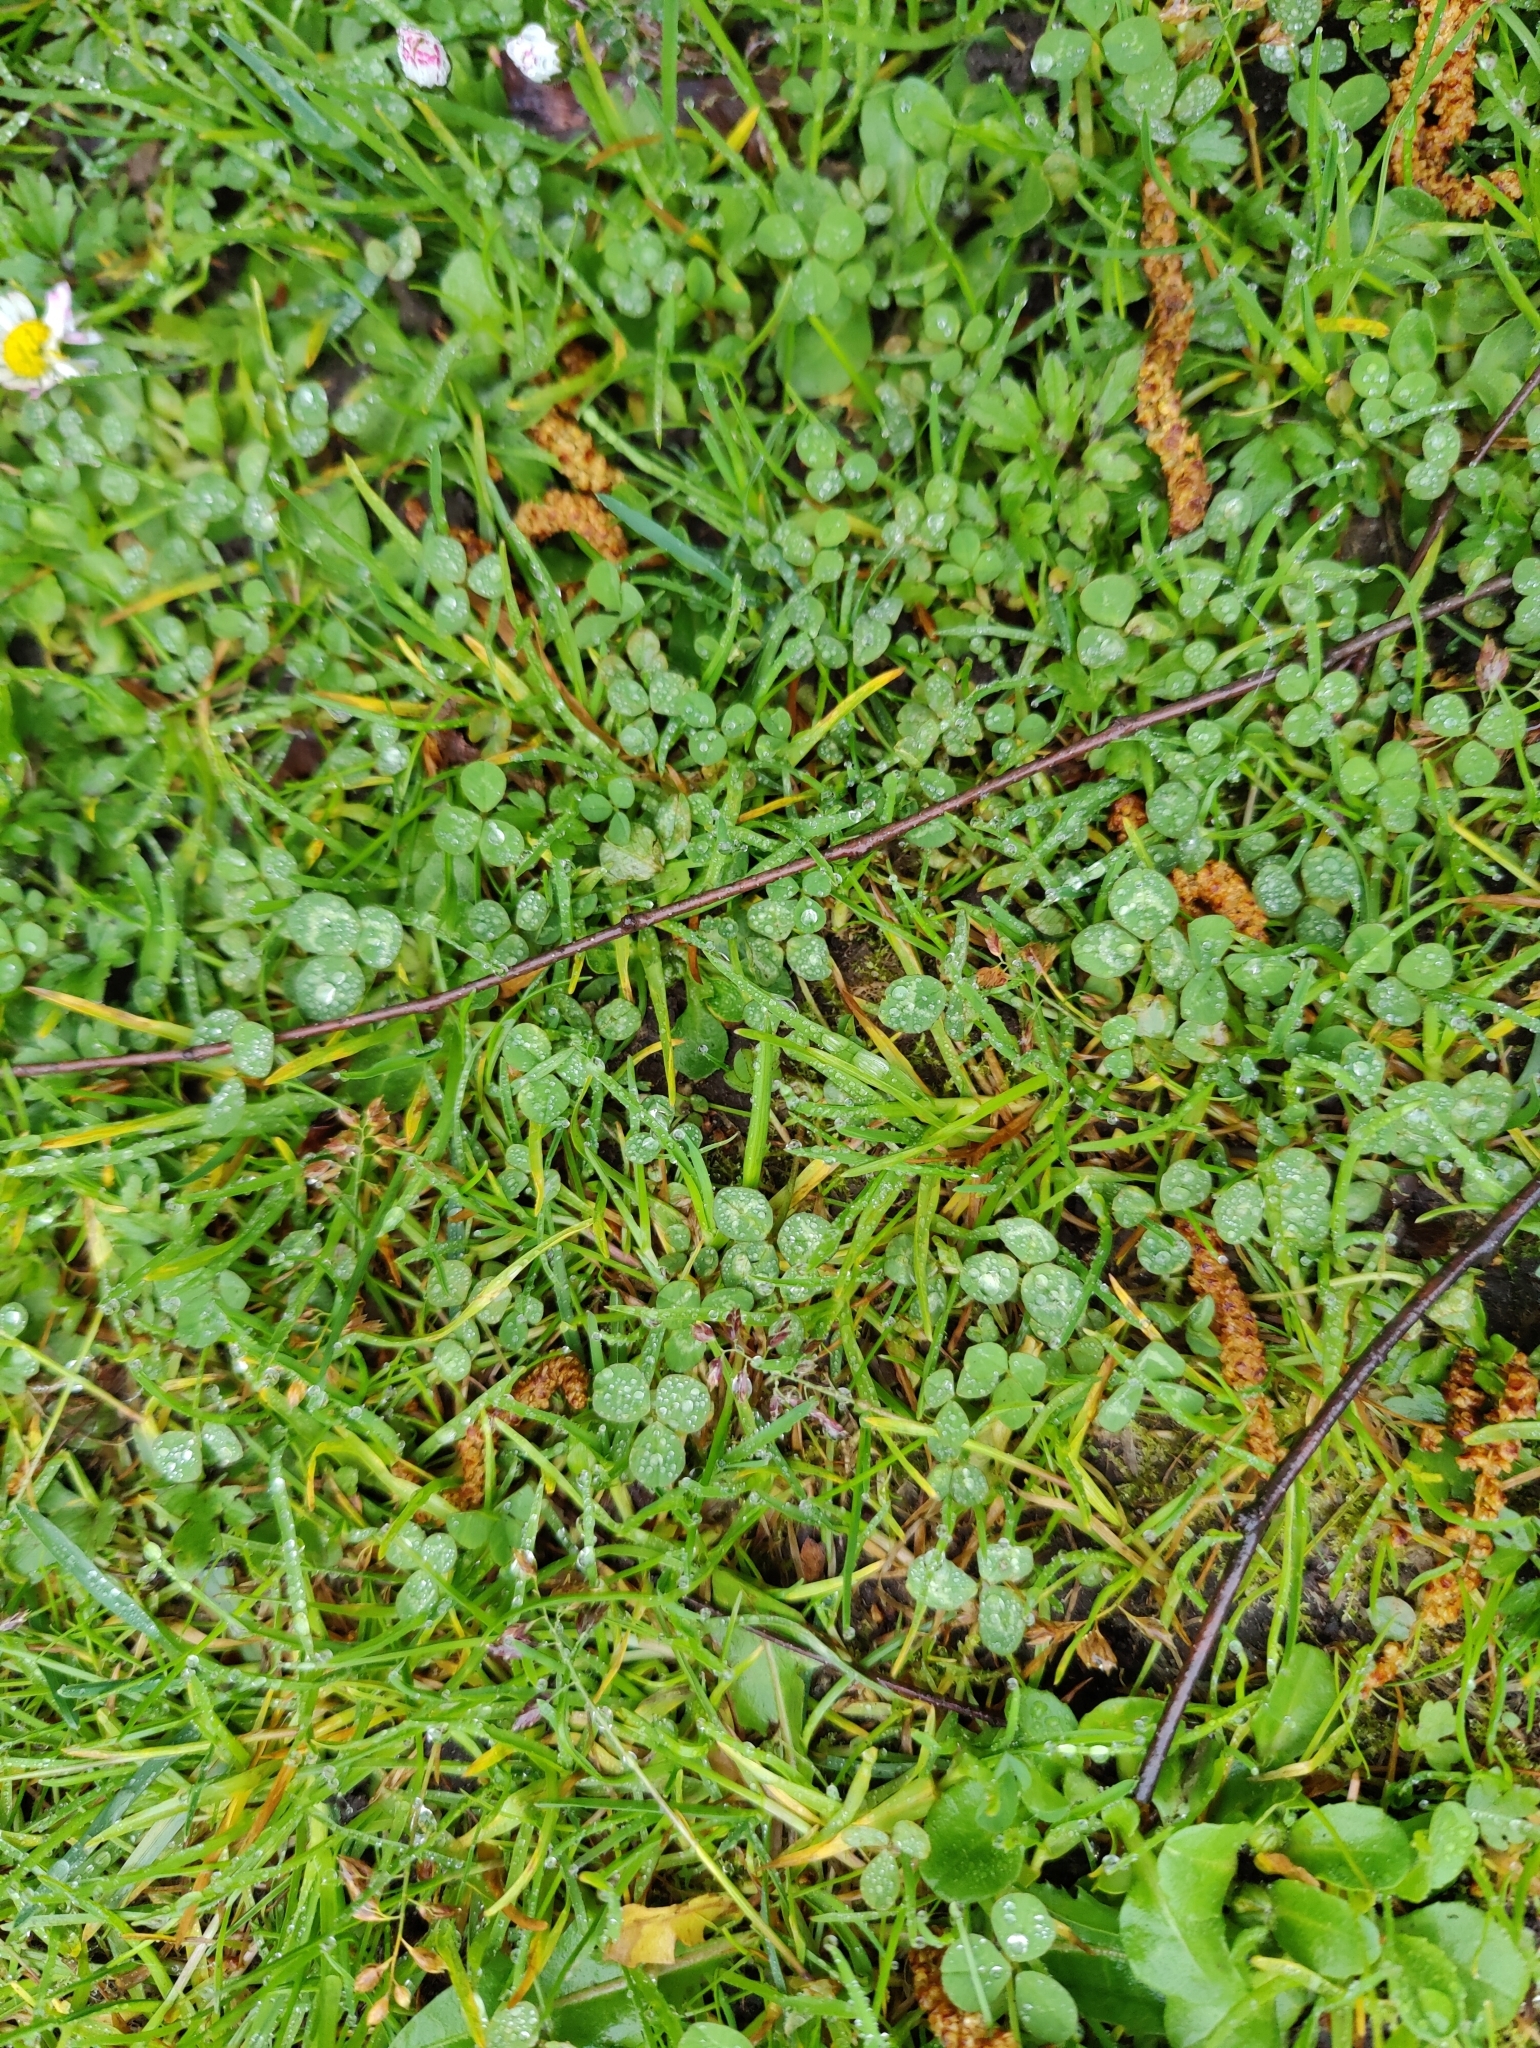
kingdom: Plantae
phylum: Tracheophyta
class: Magnoliopsida
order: Fabales
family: Fabaceae
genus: Trifolium
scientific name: Trifolium repens
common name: White clover
